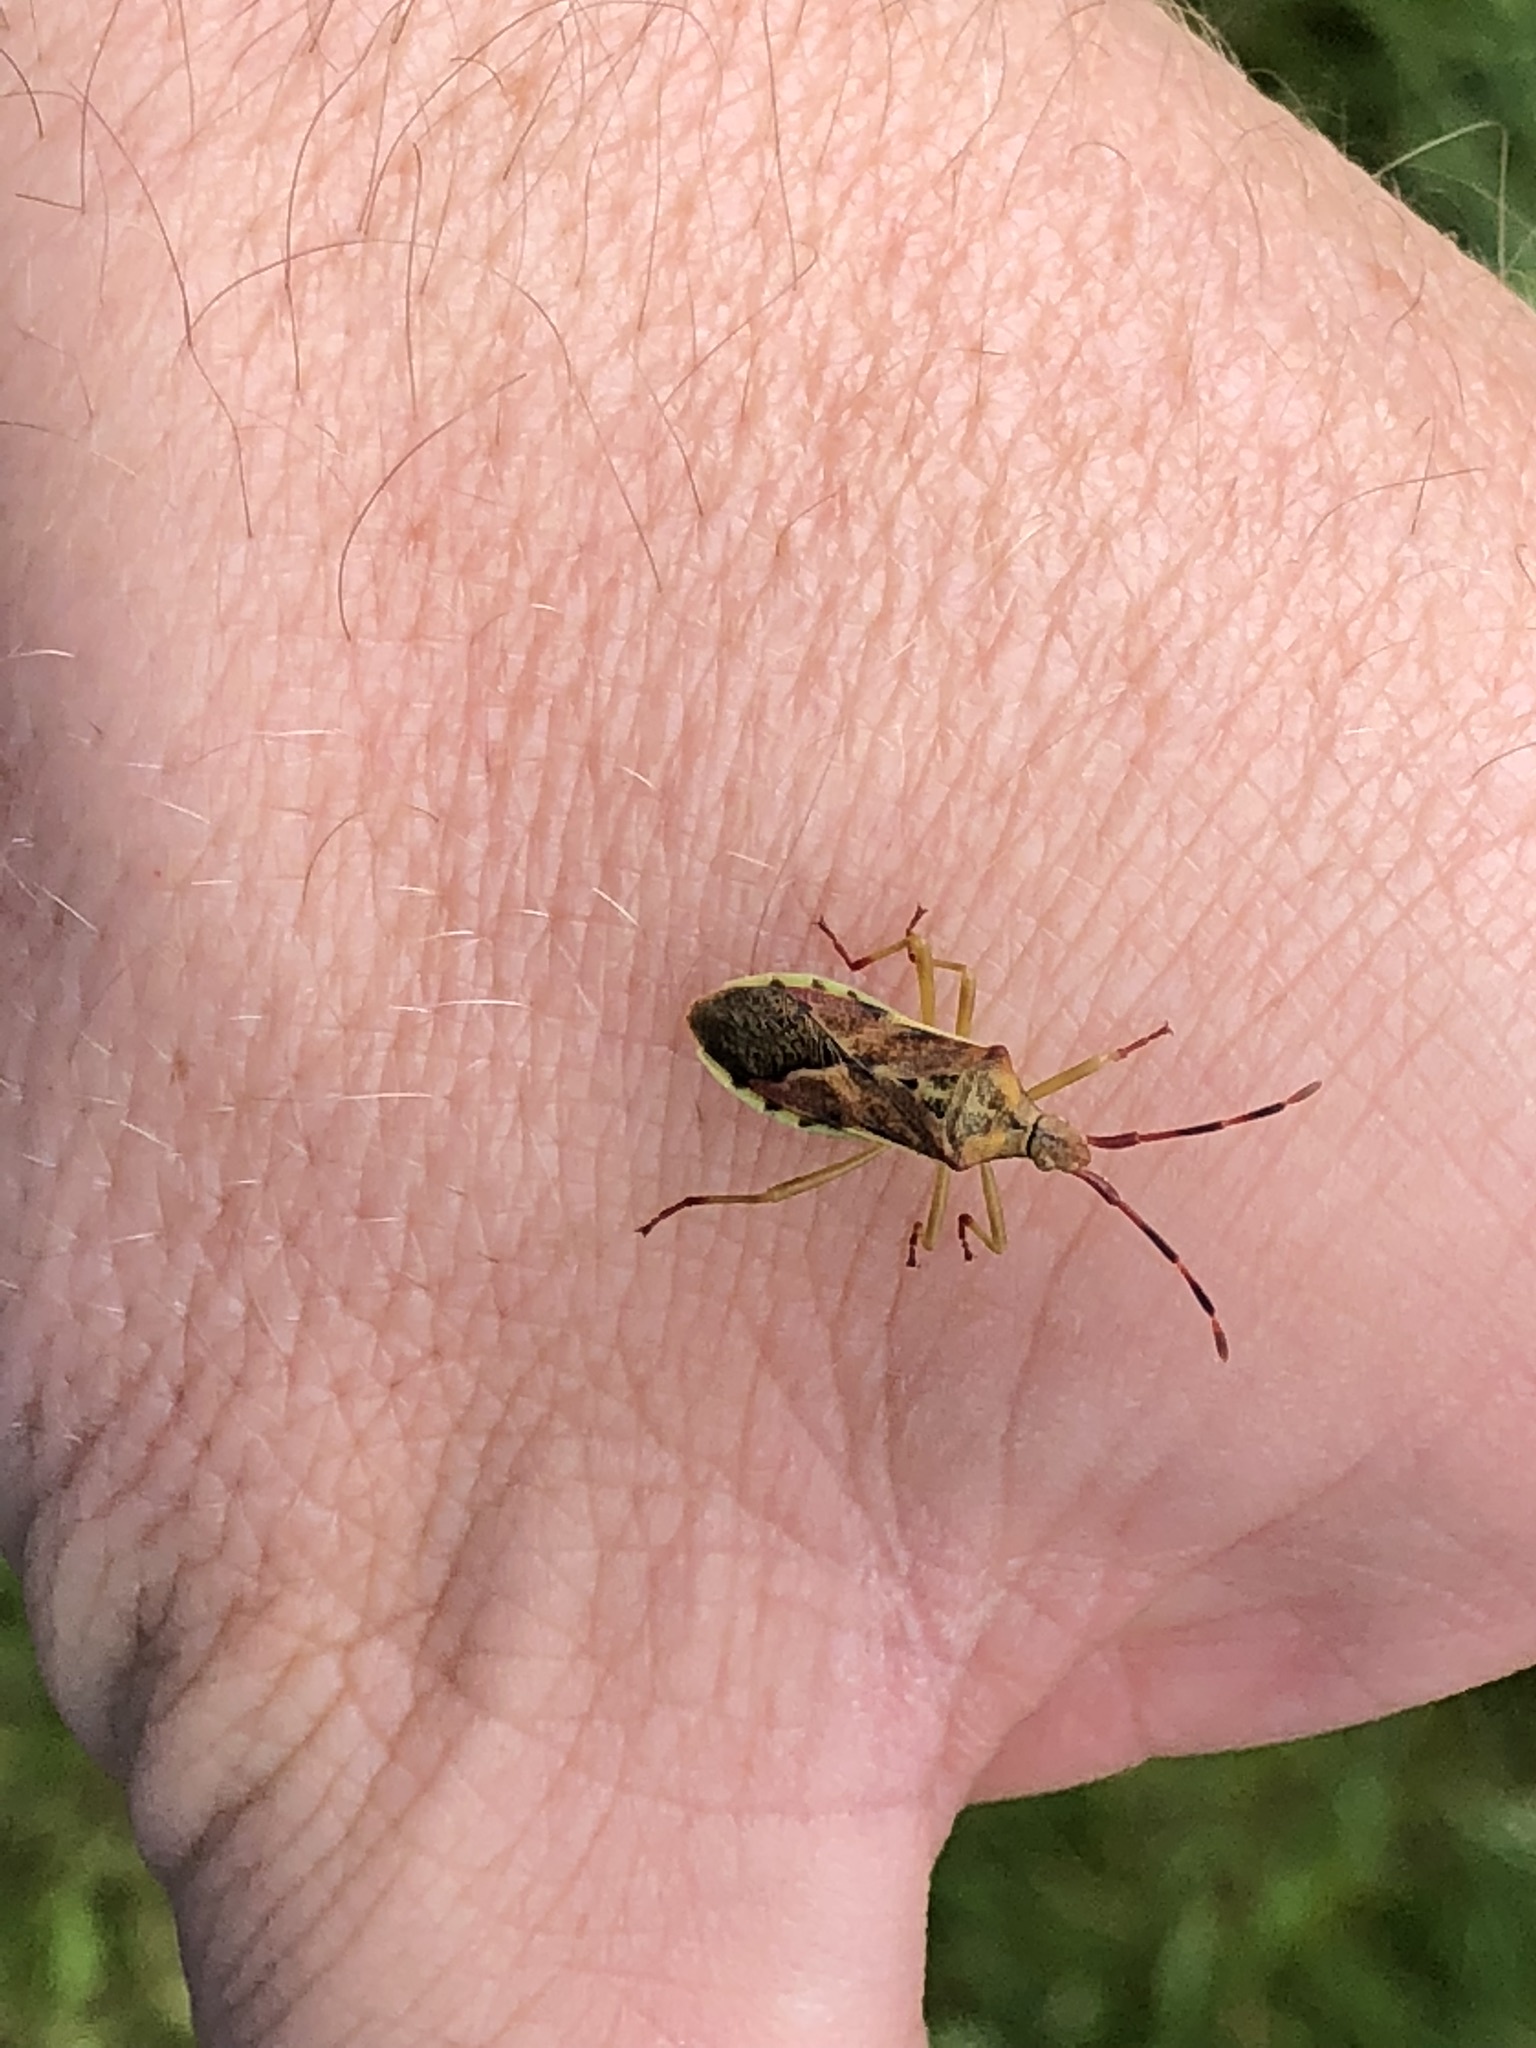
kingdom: Animalia
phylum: Arthropoda
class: Insecta
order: Hemiptera
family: Coreidae
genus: Gonocerus
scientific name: Gonocerus juniperi
